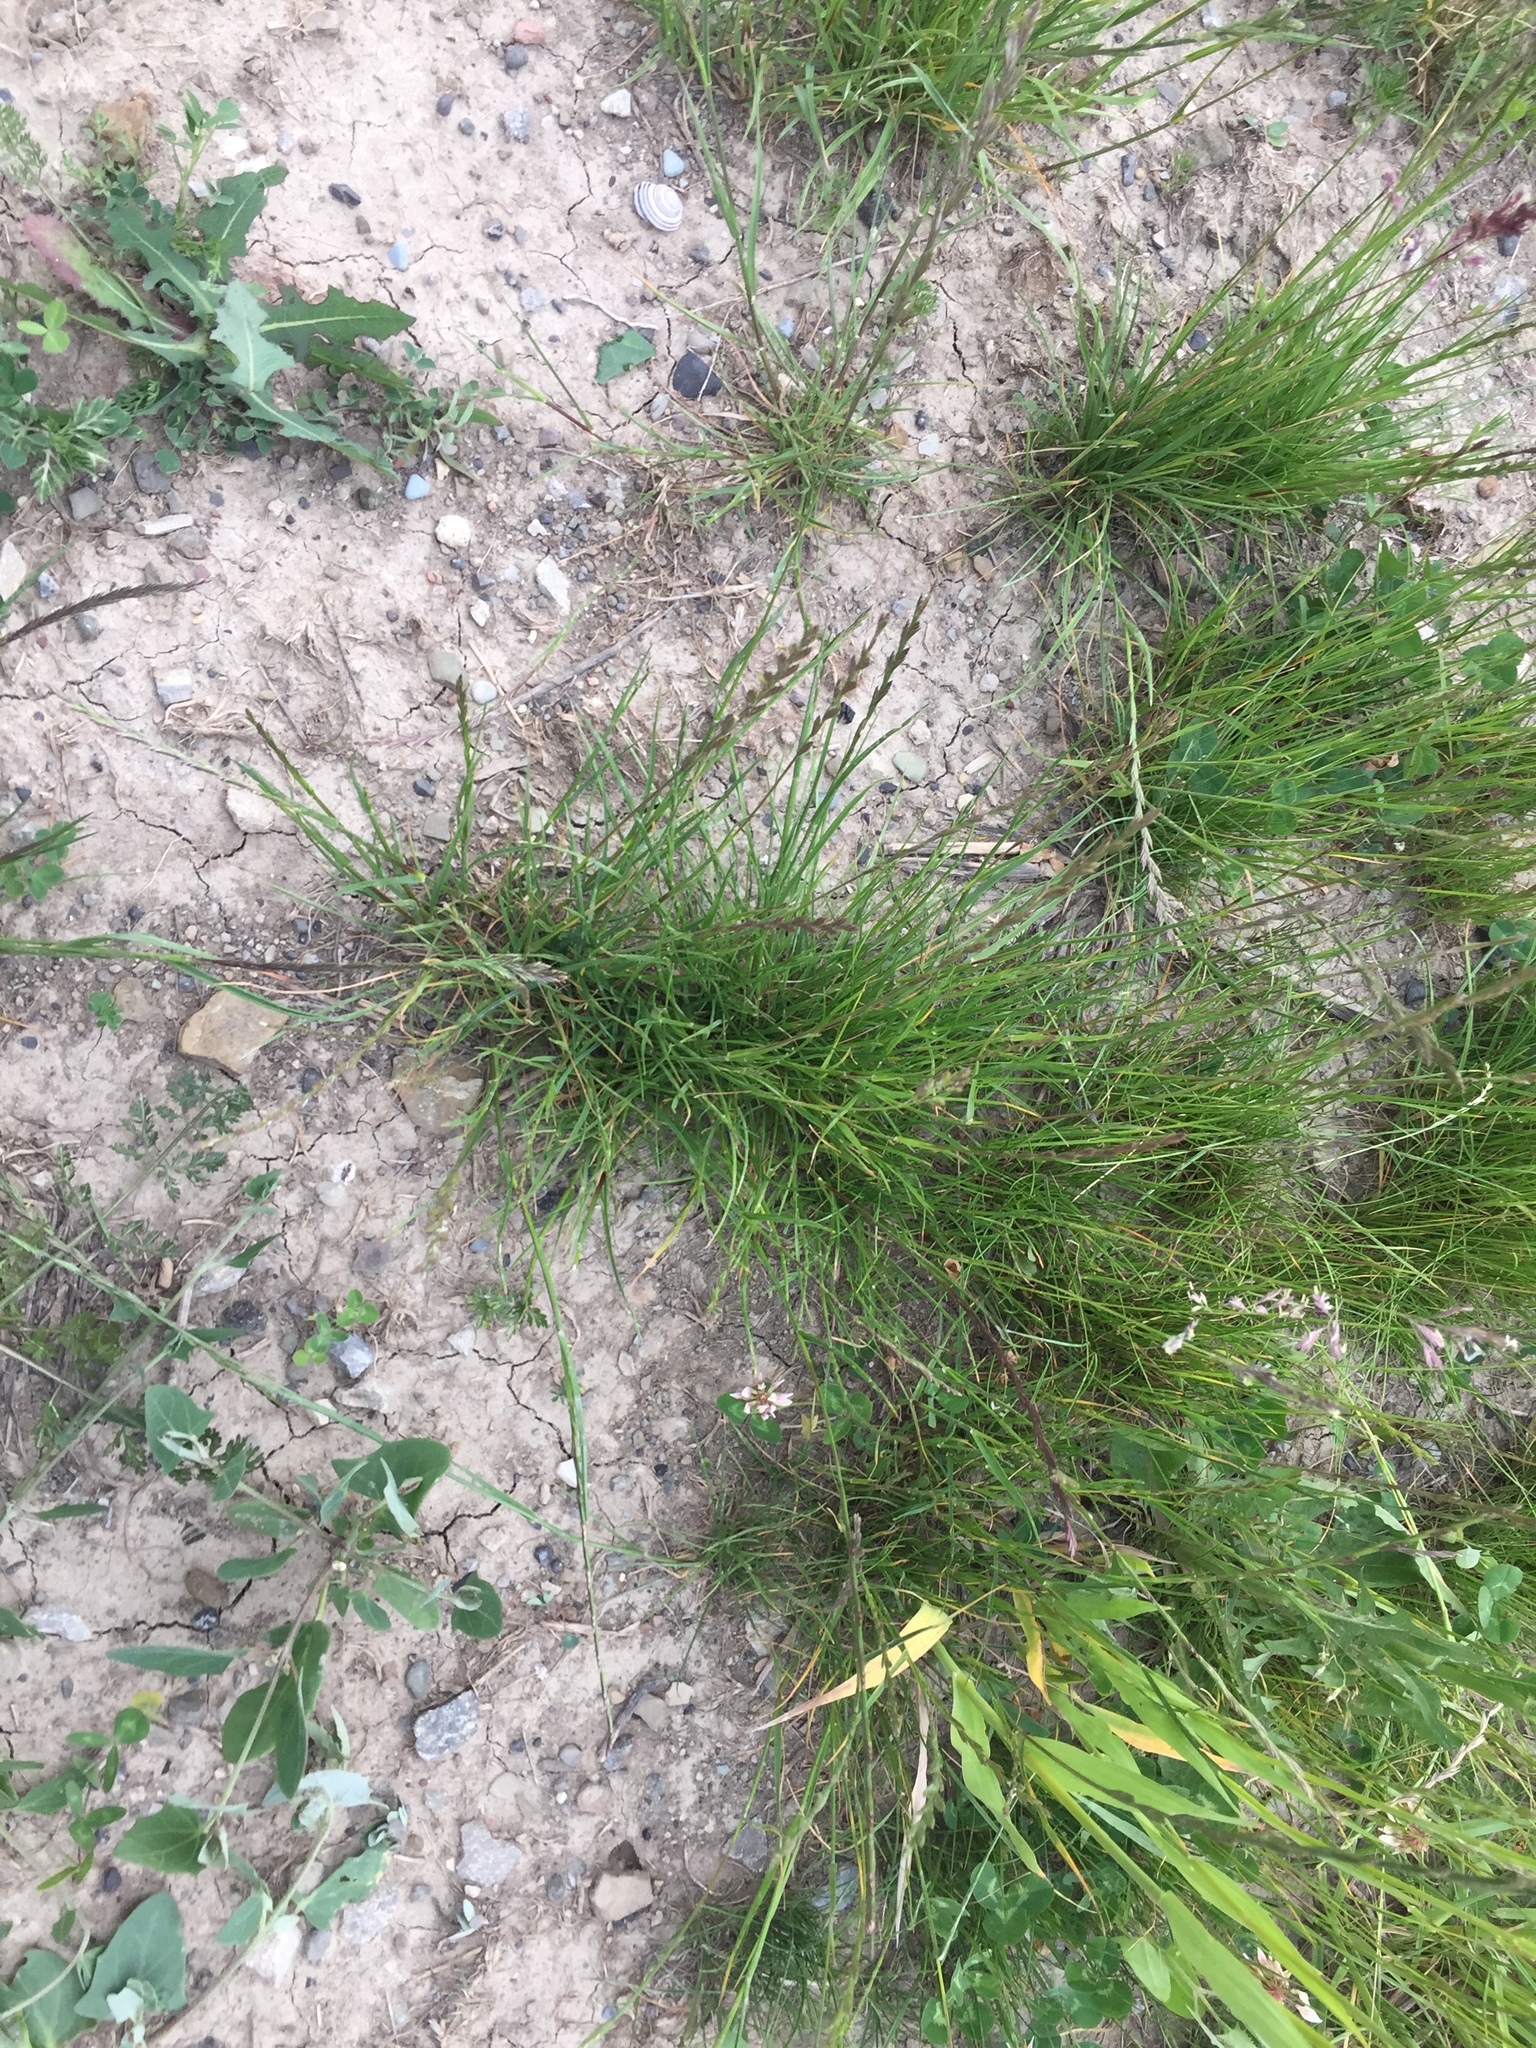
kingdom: Plantae
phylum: Tracheophyta
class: Liliopsida
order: Poales
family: Poaceae
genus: Lolium
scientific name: Lolium perenne
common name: Perennial ryegrass
